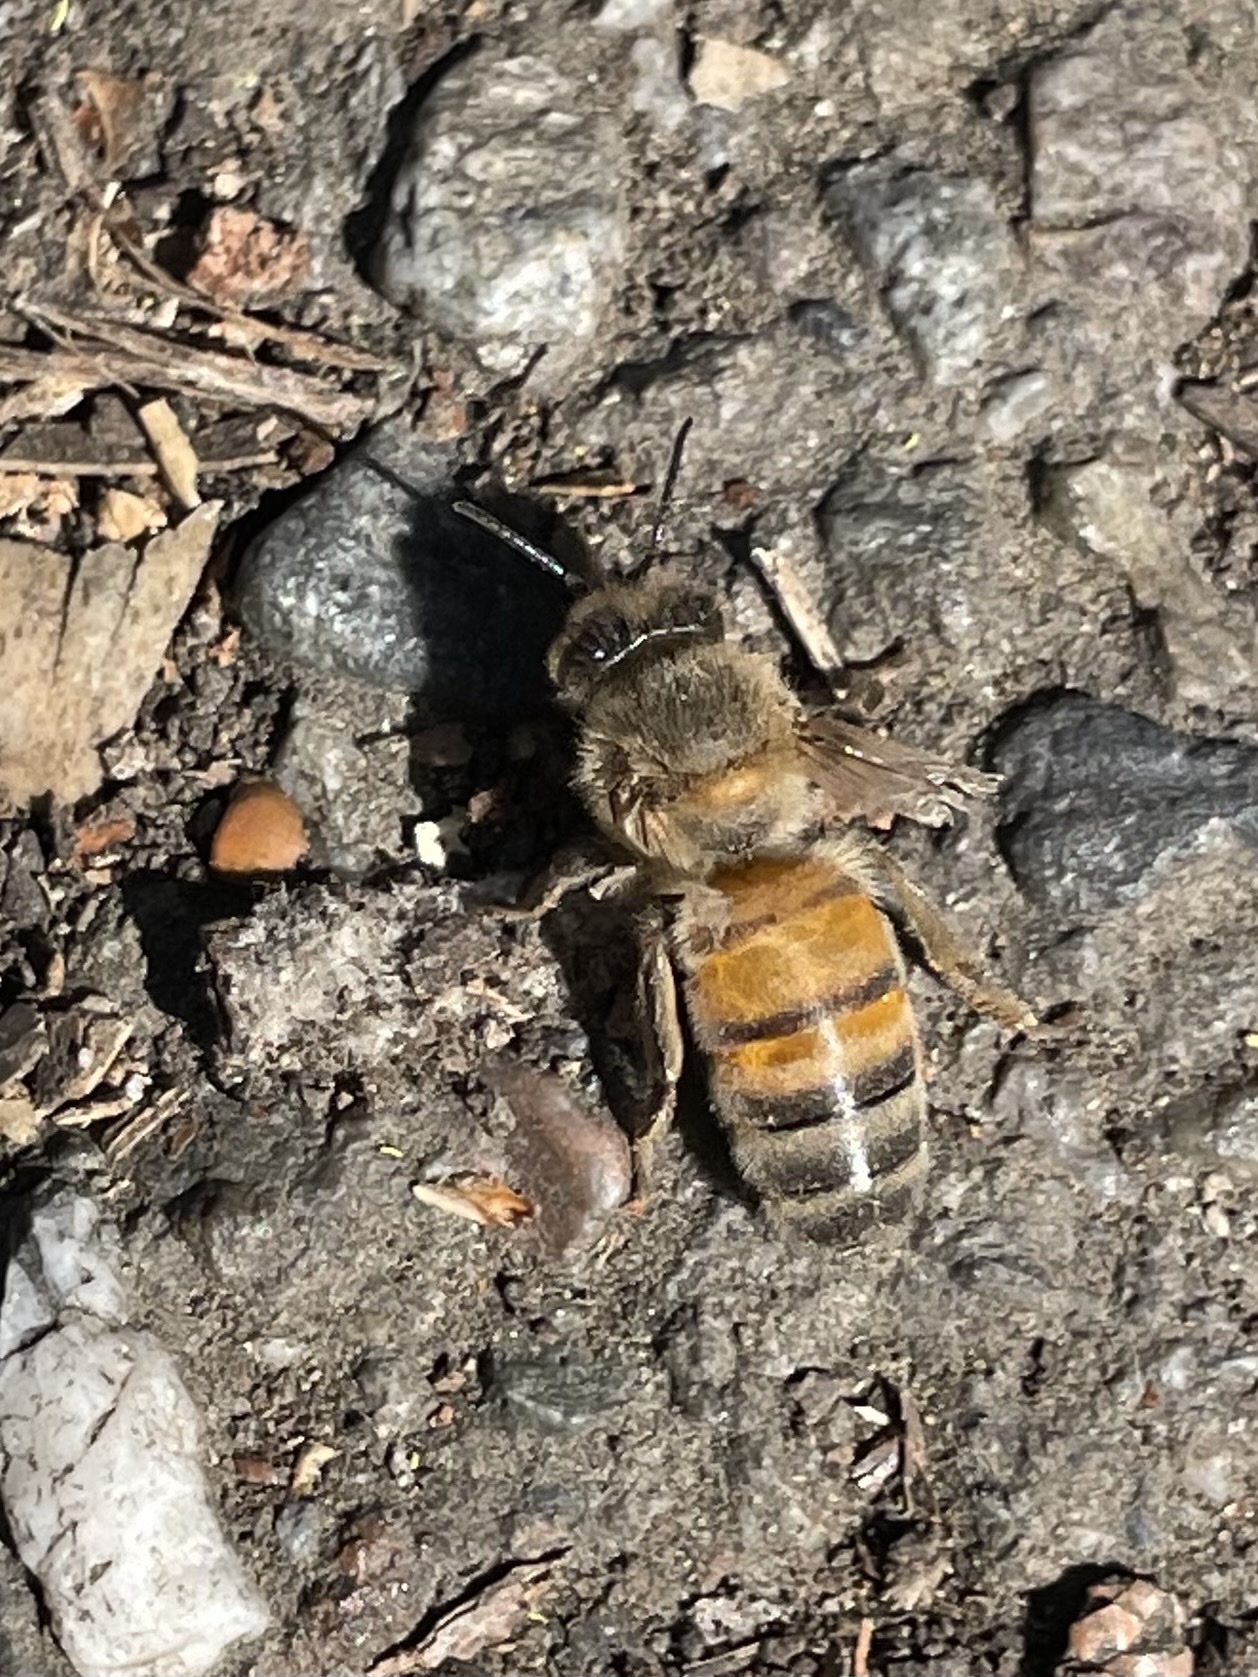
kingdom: Animalia
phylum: Arthropoda
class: Insecta
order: Hymenoptera
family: Apidae
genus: Apis
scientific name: Apis mellifera
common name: Honey bee
